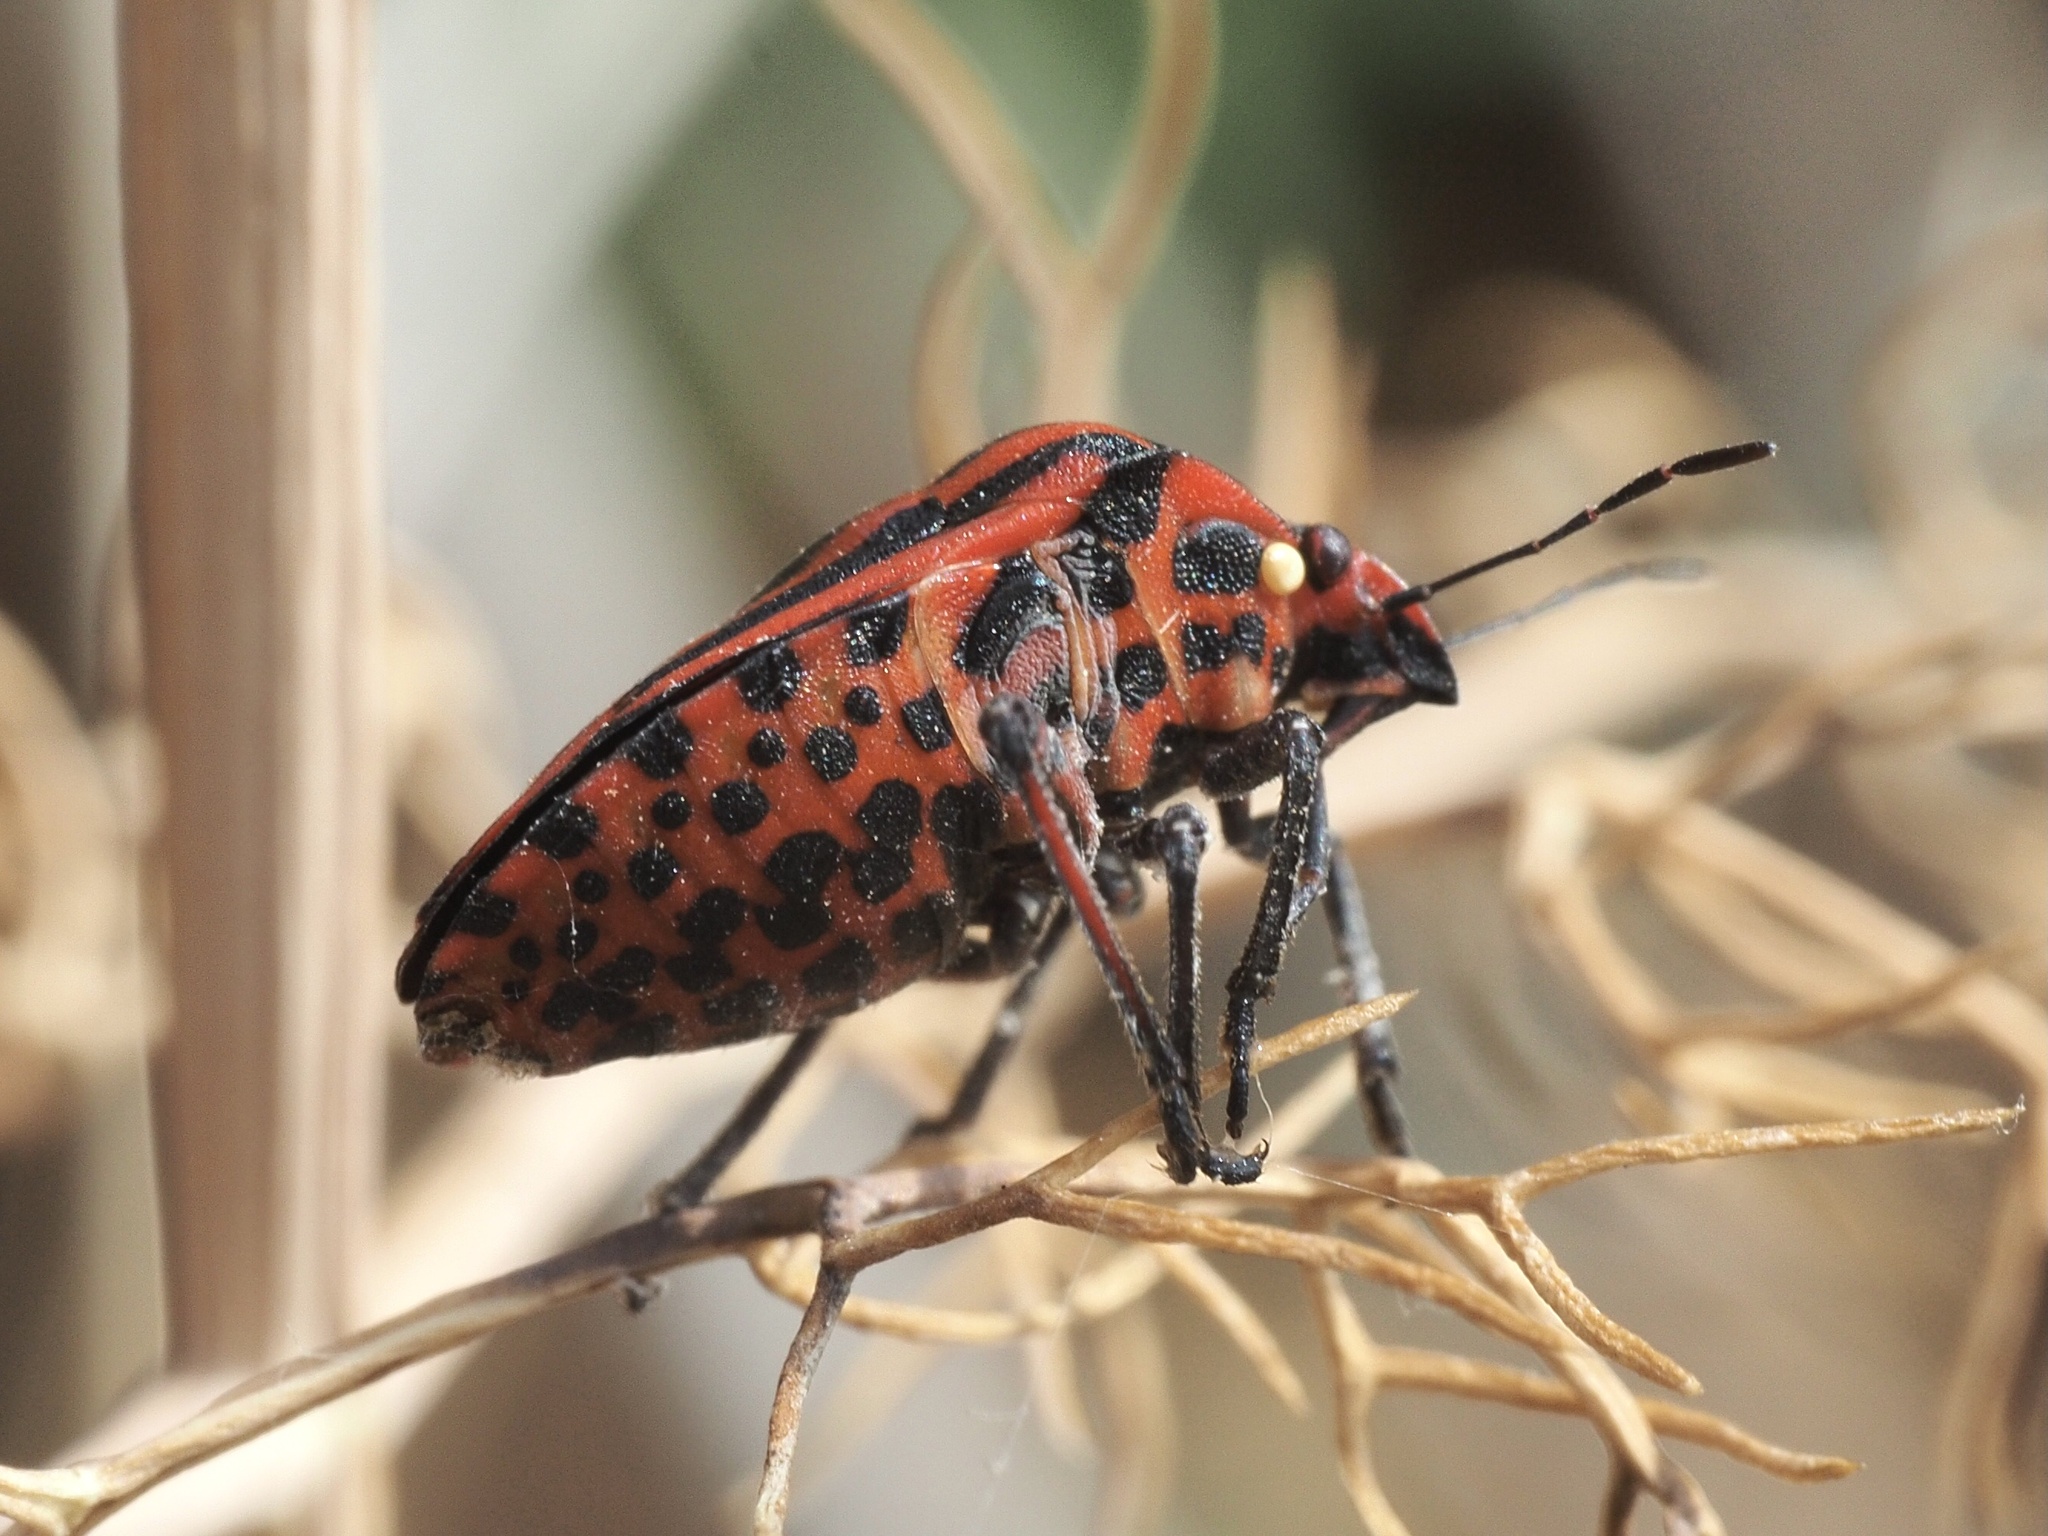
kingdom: Animalia
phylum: Arthropoda
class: Insecta
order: Hemiptera
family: Pentatomidae
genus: Graphosoma
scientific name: Graphosoma italicum
